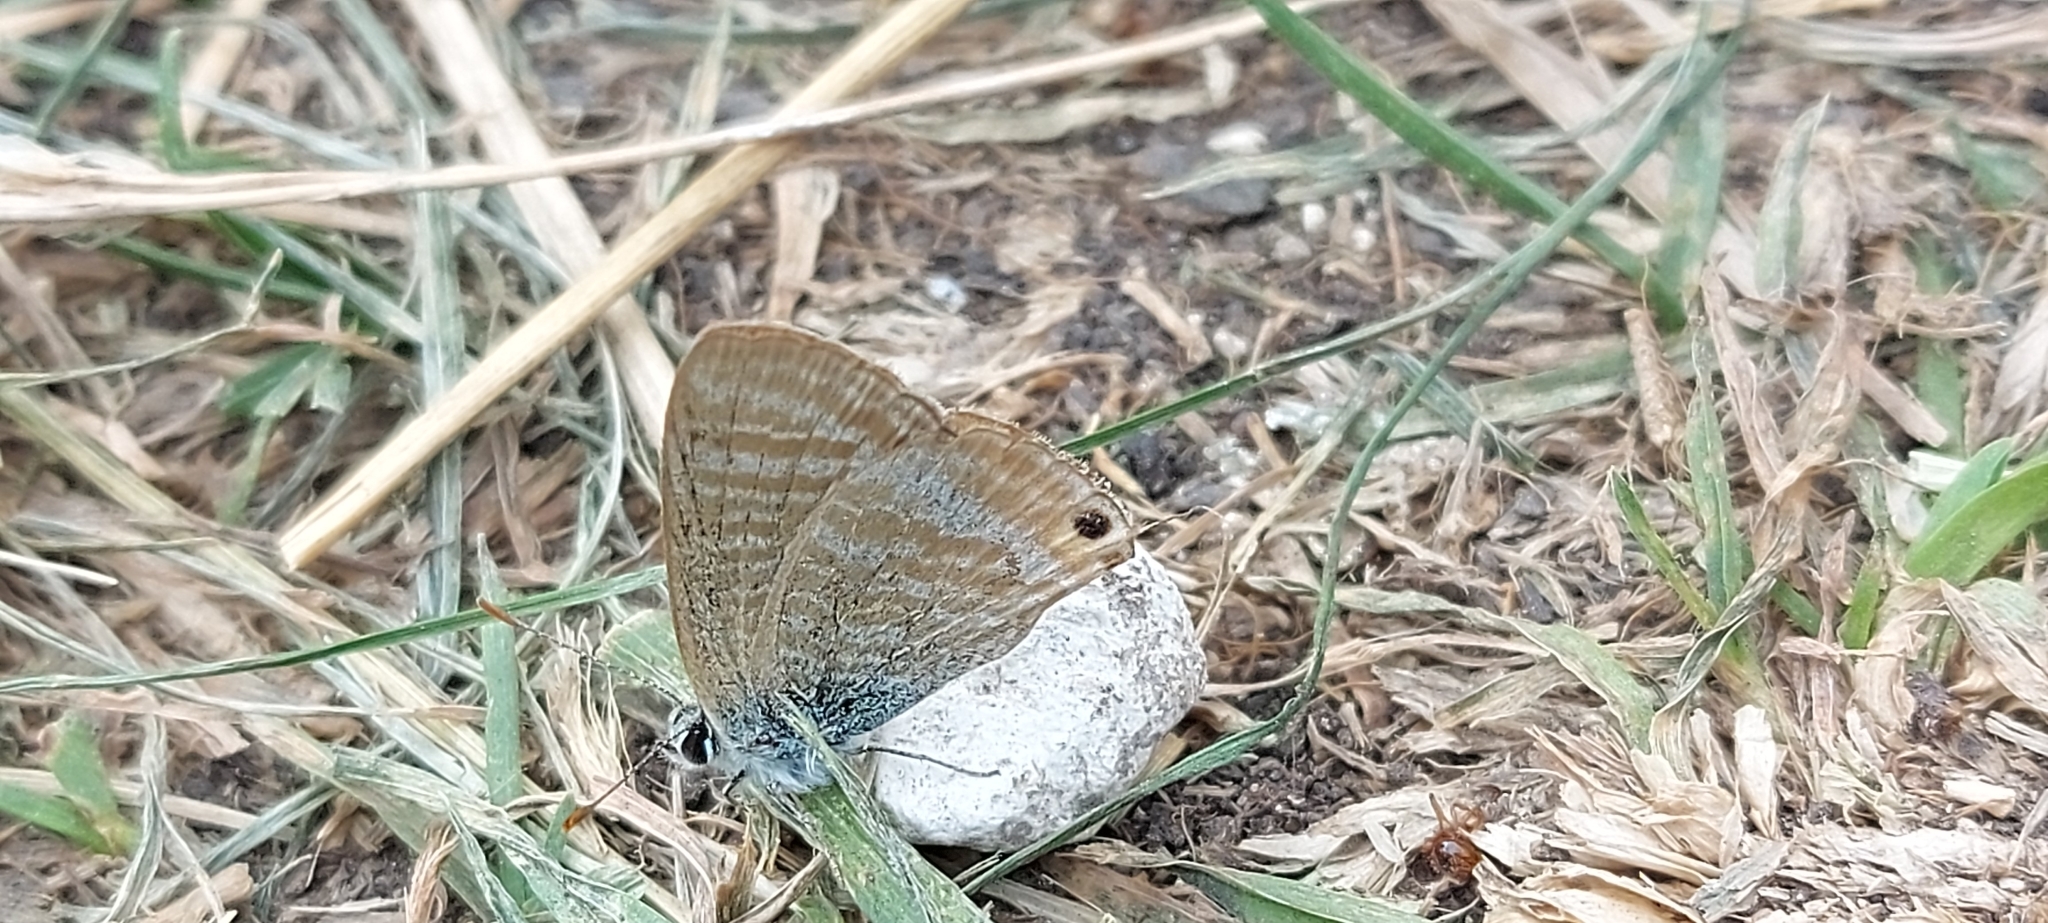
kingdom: Animalia
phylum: Arthropoda
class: Insecta
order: Lepidoptera
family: Lycaenidae
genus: Lampides
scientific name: Lampides boeticus
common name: Long-tailed blue
